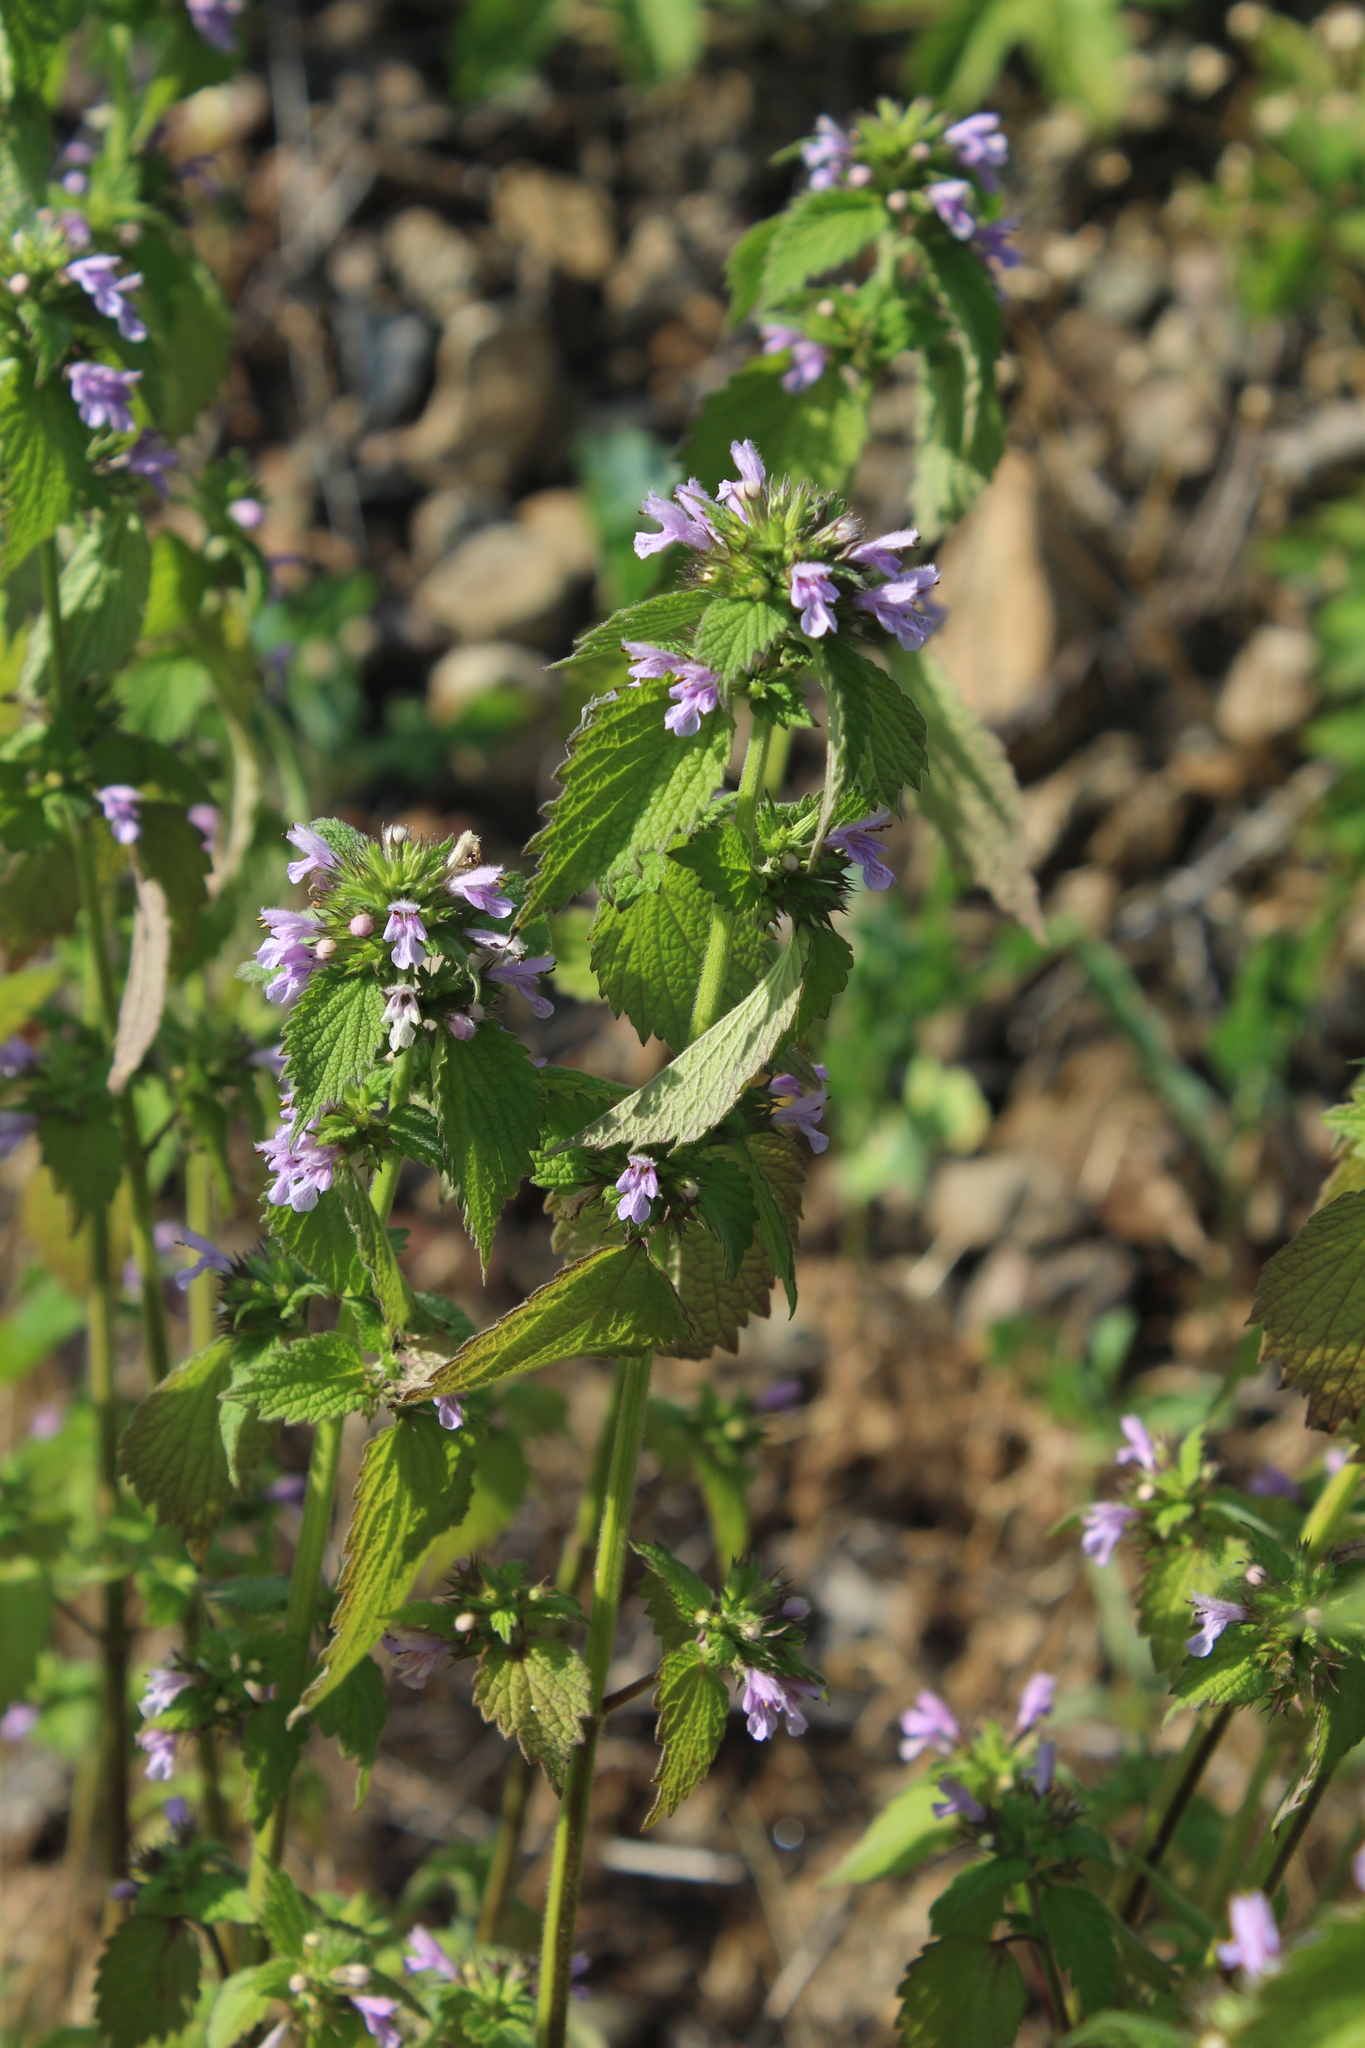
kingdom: Plantae
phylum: Tracheophyta
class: Magnoliopsida
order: Lamiales
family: Lamiaceae
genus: Ballota
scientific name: Ballota nigra
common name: Black horehound
